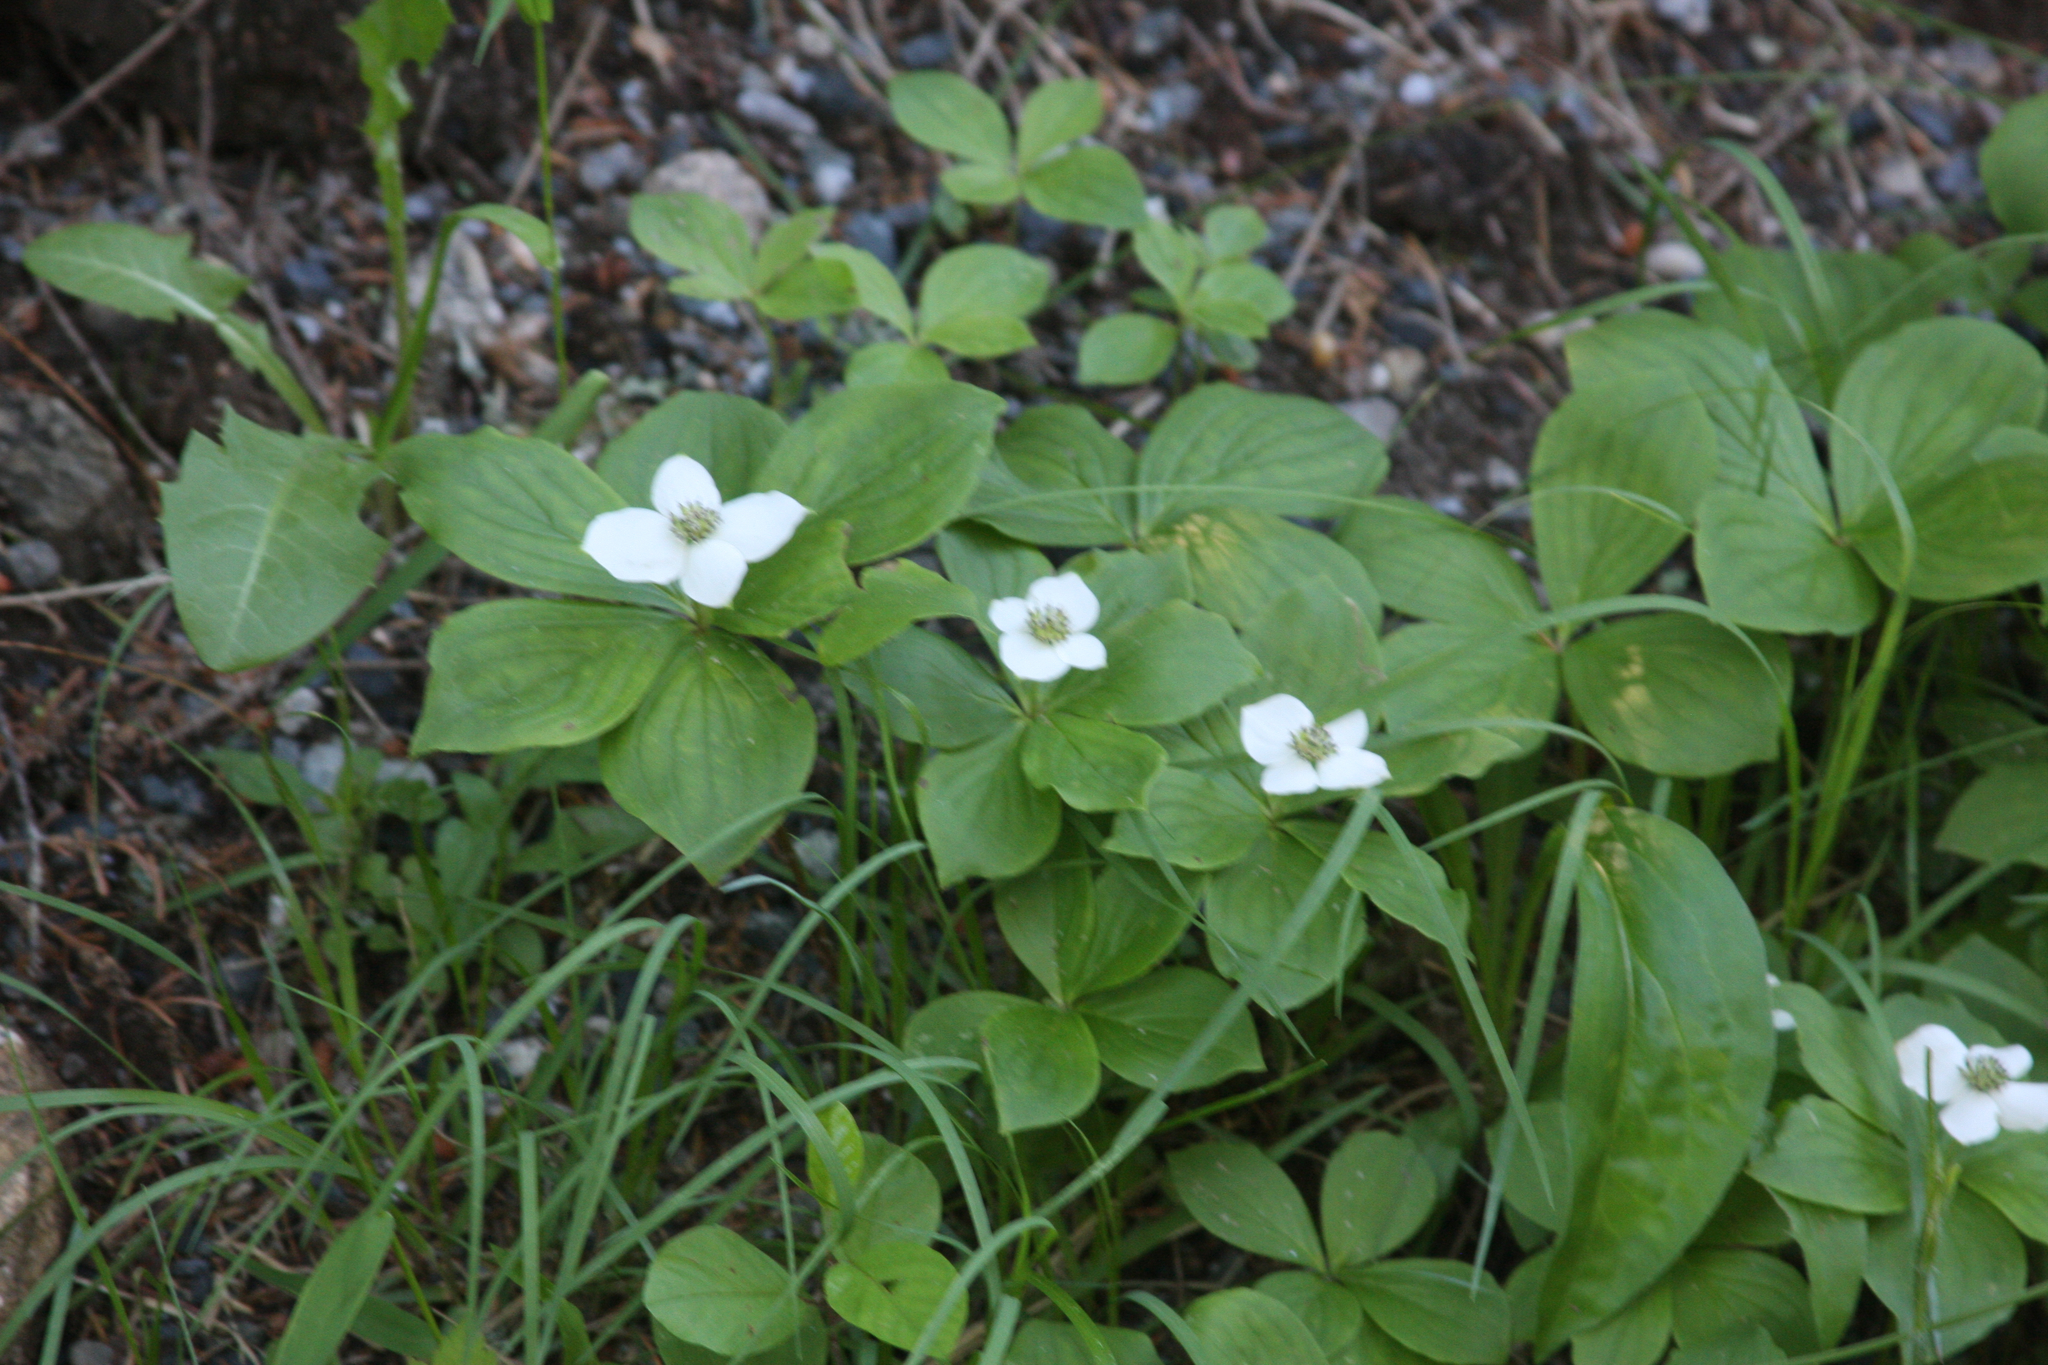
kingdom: Plantae
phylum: Tracheophyta
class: Magnoliopsida
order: Cornales
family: Cornaceae
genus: Cornus
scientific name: Cornus canadensis
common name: Creeping dogwood
